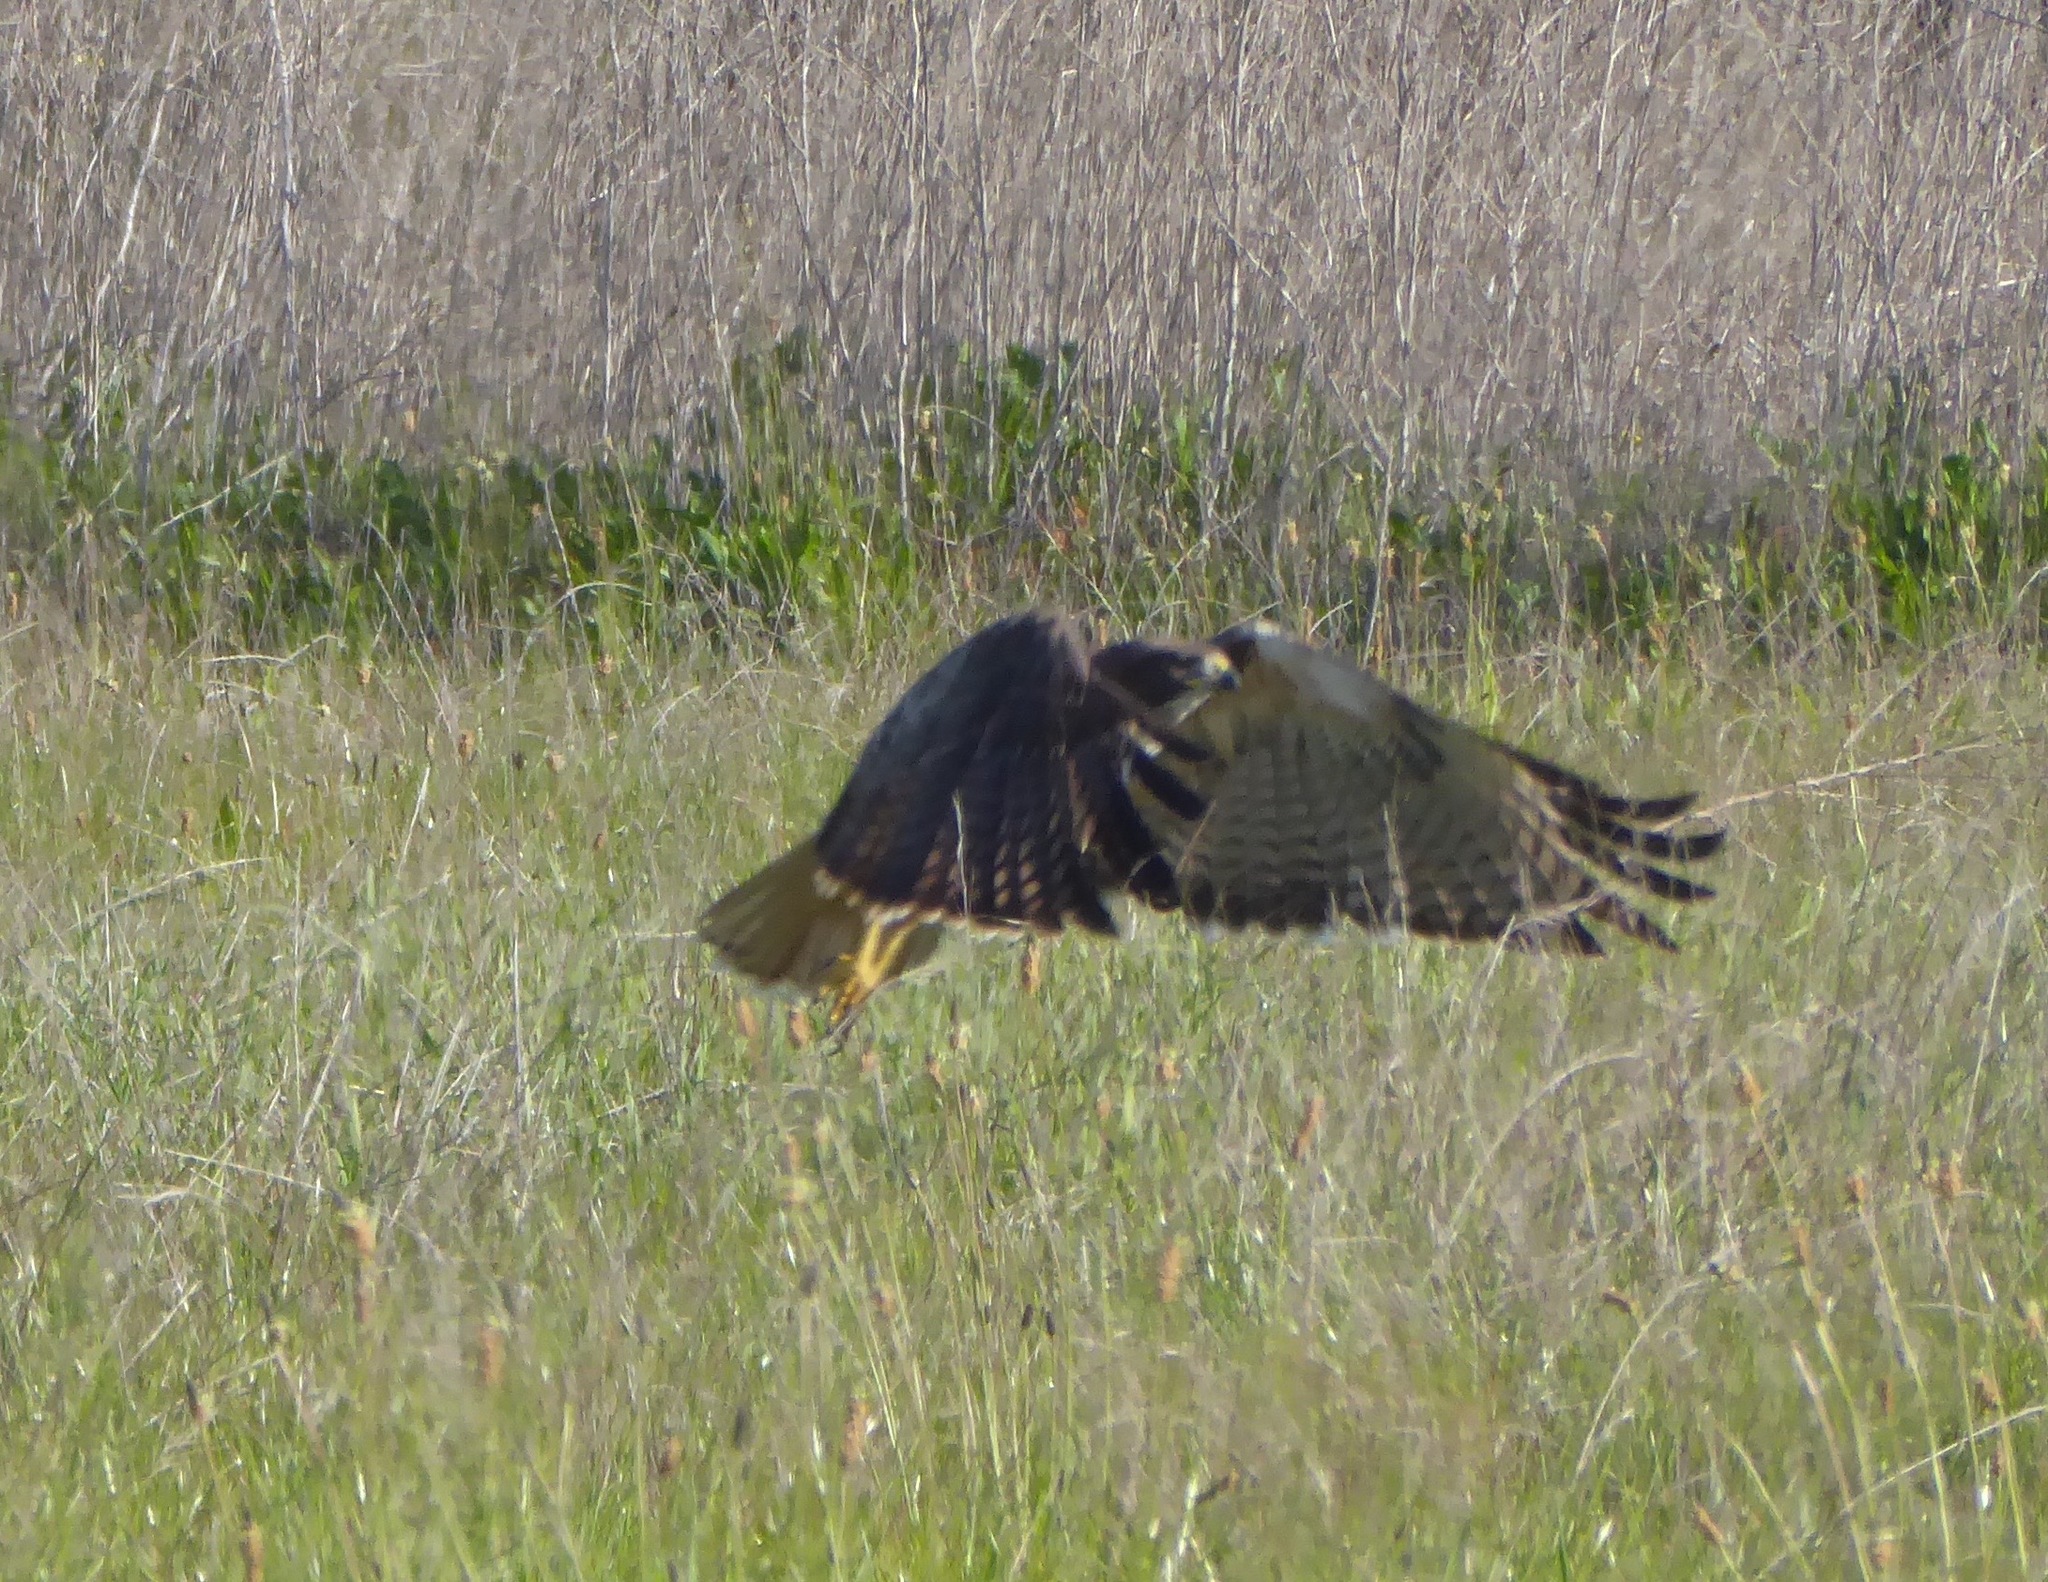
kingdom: Animalia
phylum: Chordata
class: Aves
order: Accipitriformes
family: Accipitridae
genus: Buteo
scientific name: Buteo jamaicensis
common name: Red-tailed hawk
